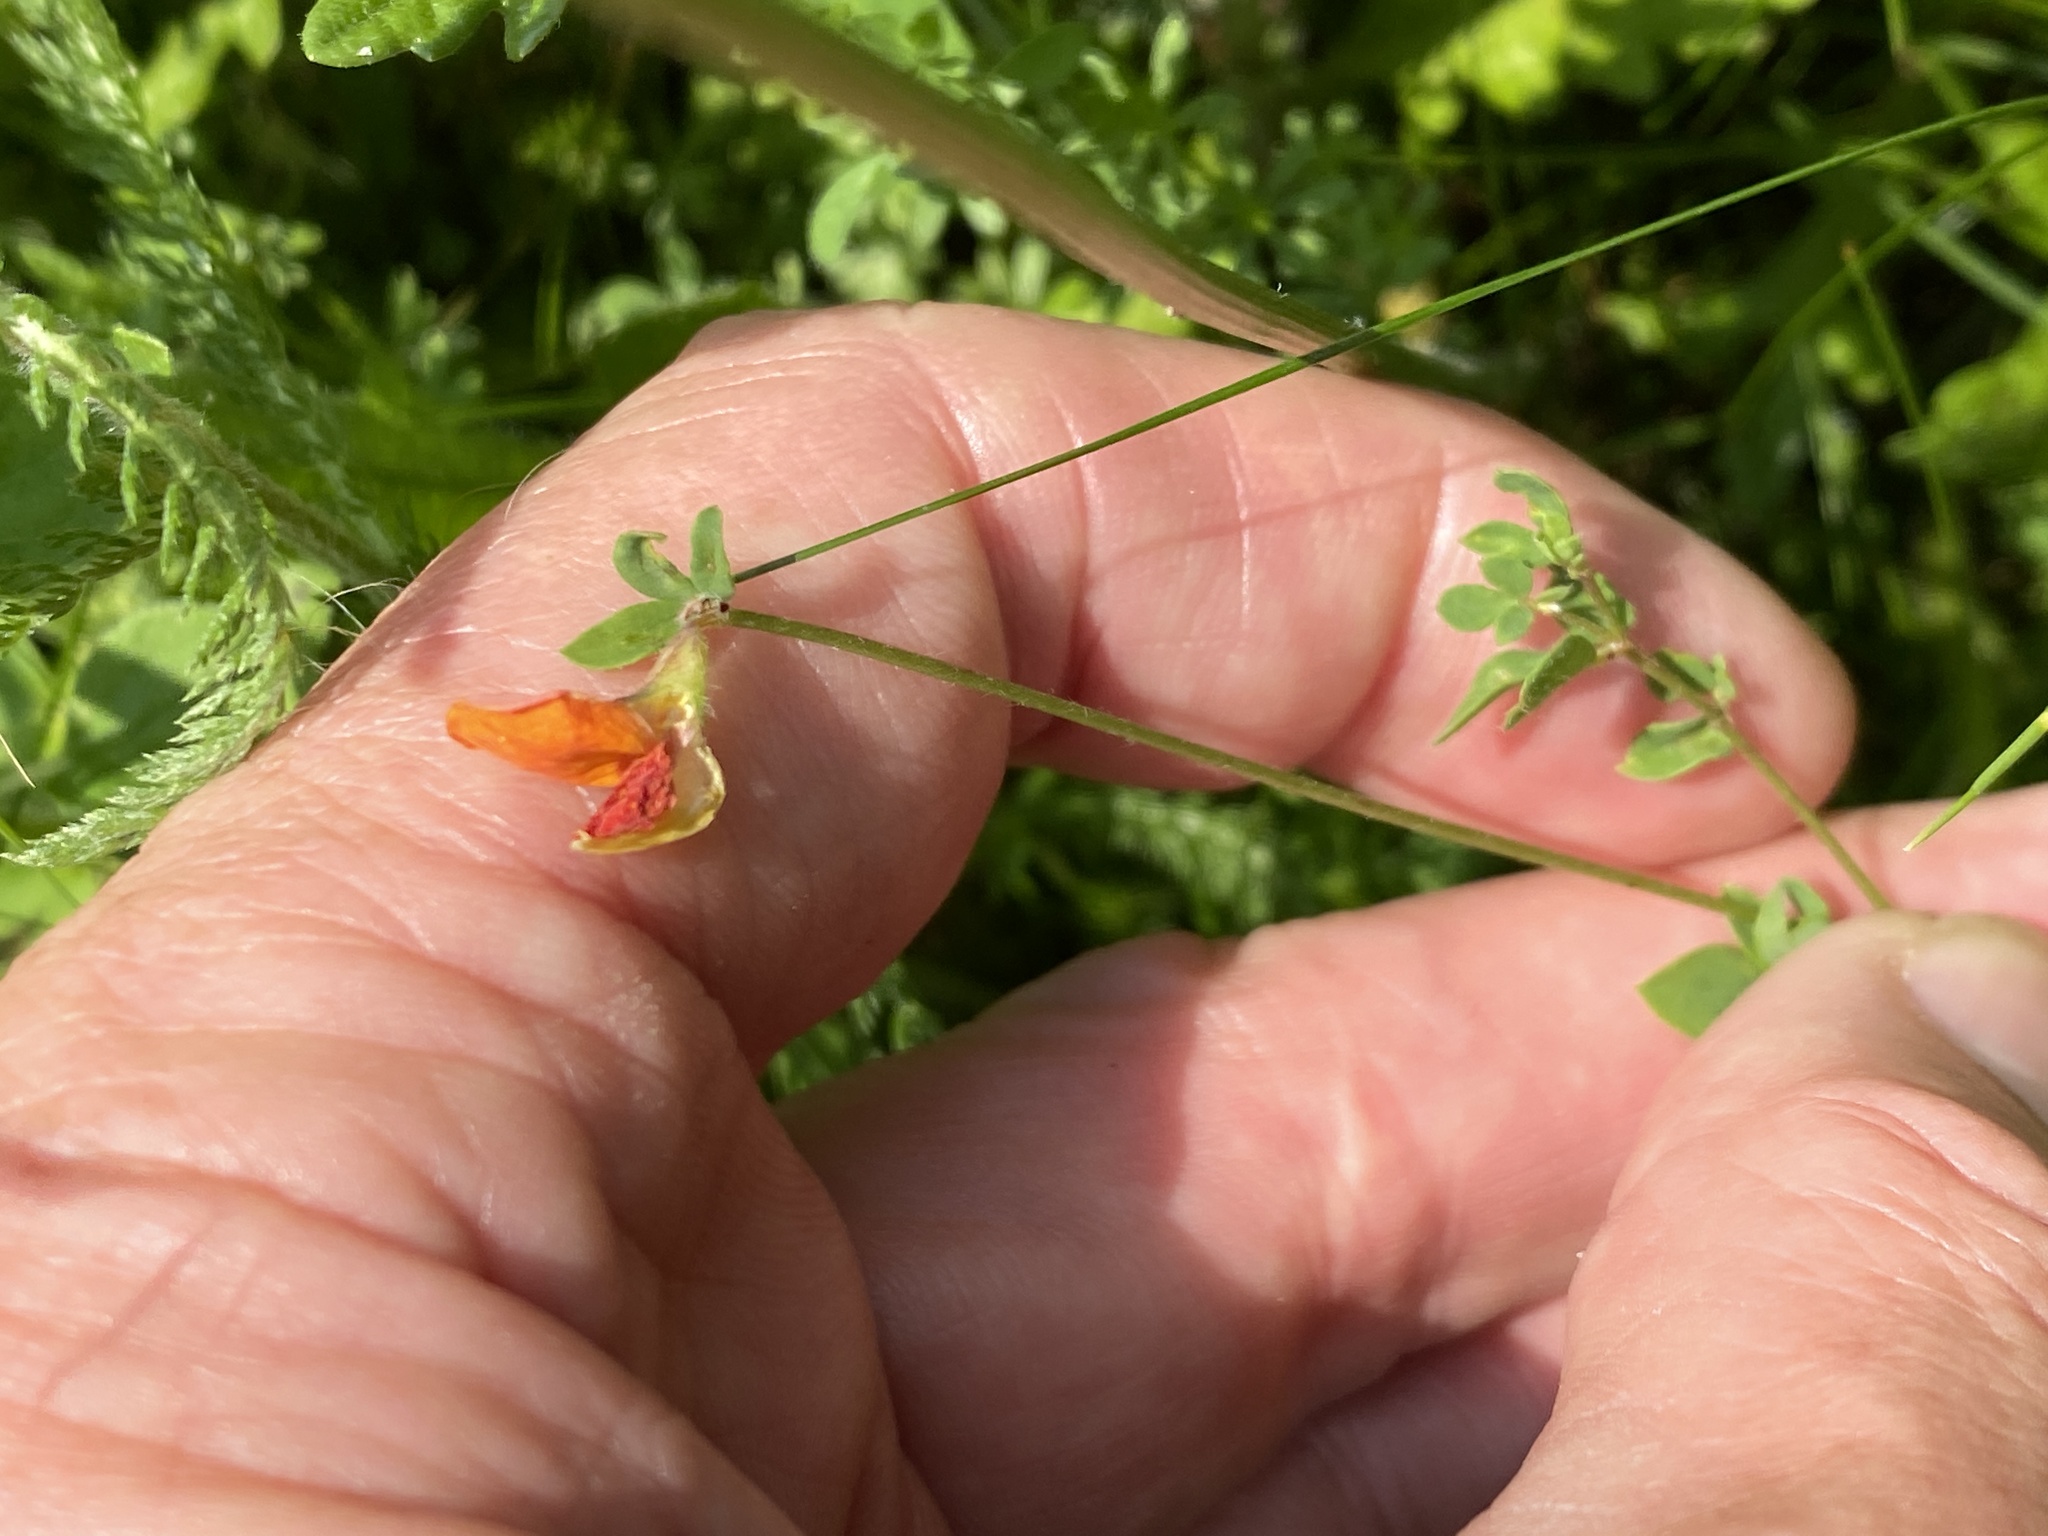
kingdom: Plantae
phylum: Tracheophyta
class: Magnoliopsida
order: Fabales
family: Fabaceae
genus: Lotus
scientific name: Lotus corniculatus
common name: Common bird's-foot-trefoil
